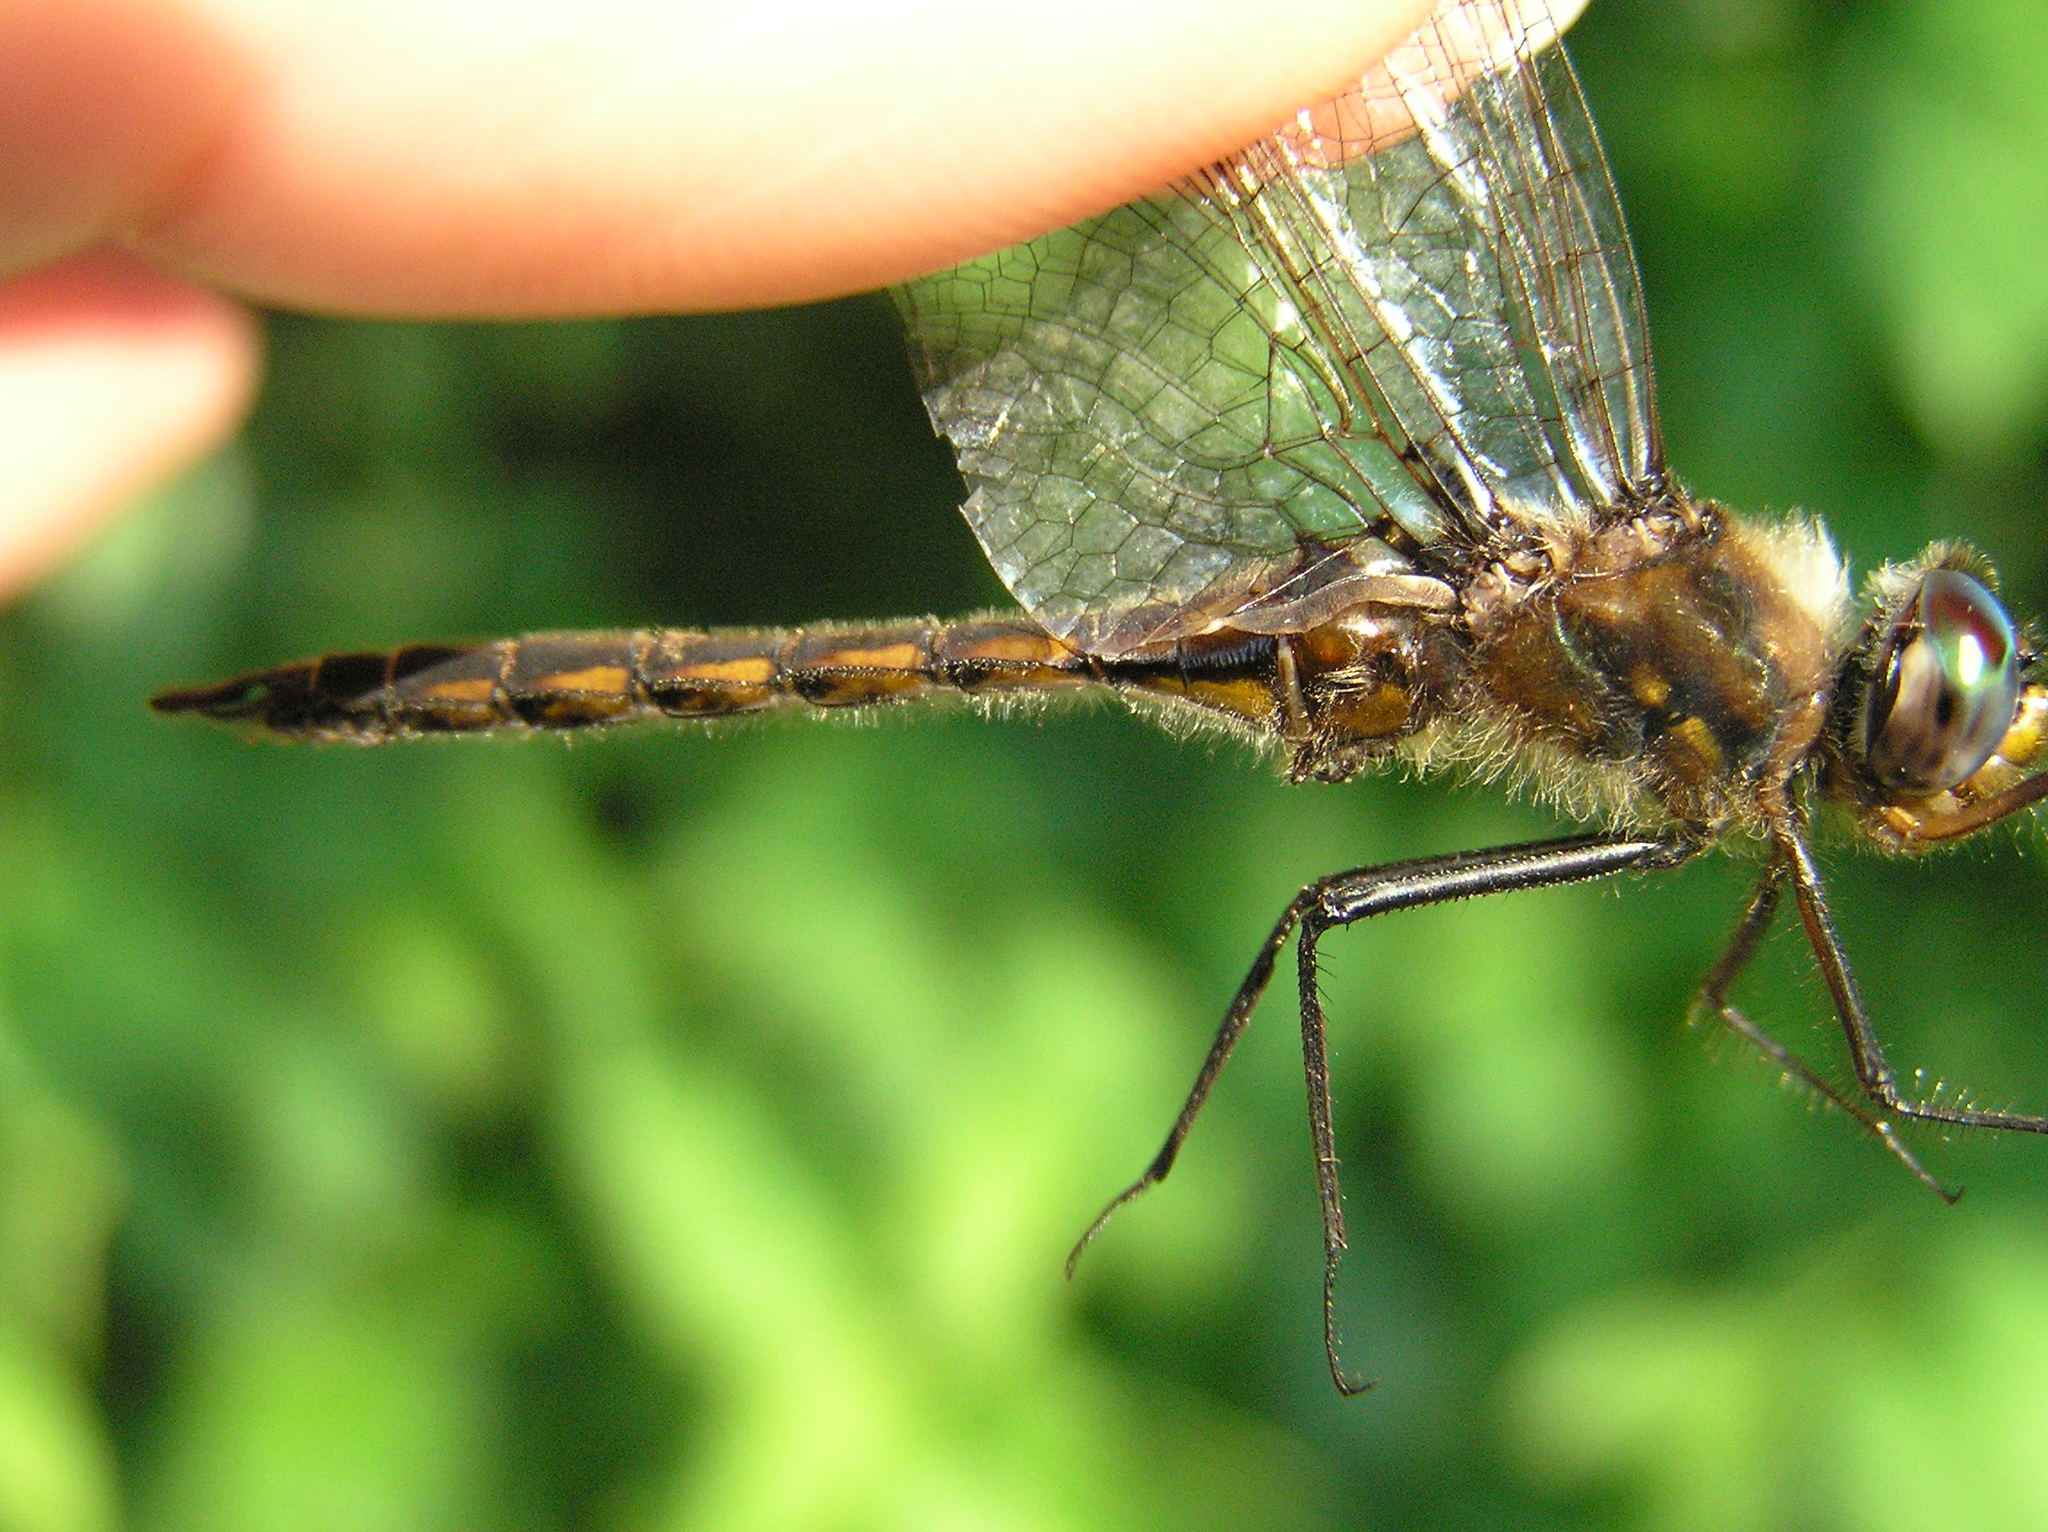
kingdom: Animalia
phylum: Arthropoda
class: Insecta
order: Odonata
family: Corduliidae
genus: Epitheca
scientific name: Epitheca cynosura
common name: Common baskettail
